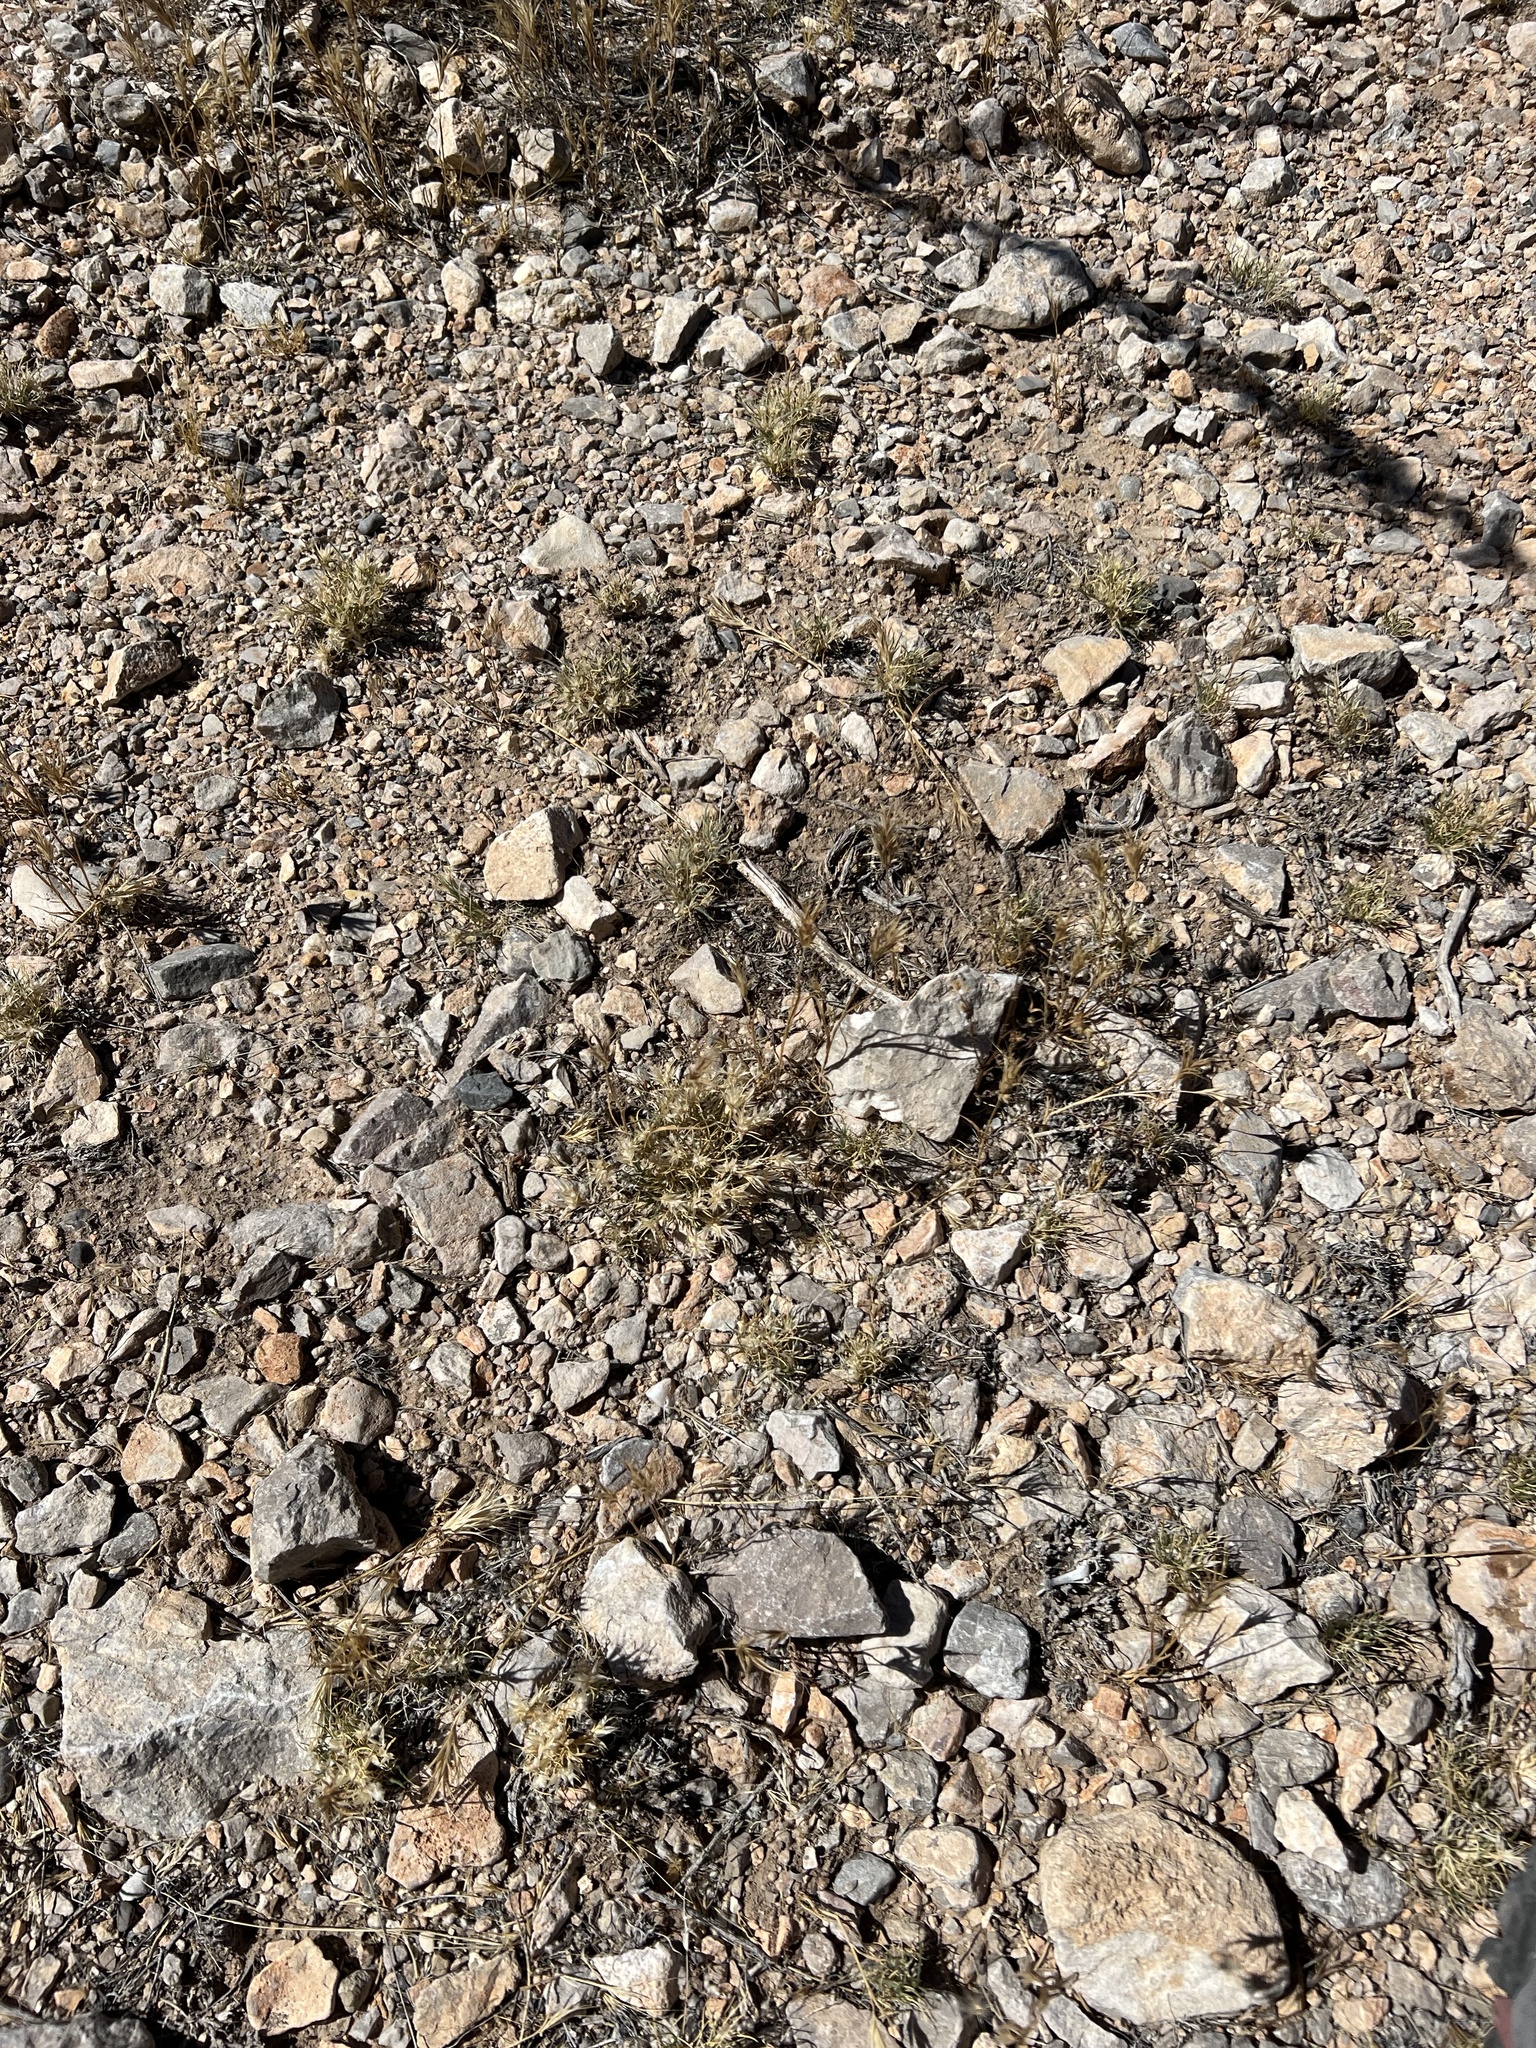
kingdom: Plantae
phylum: Tracheophyta
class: Liliopsida
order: Poales
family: Poaceae
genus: Dasyochloa
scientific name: Dasyochloa pulchella
